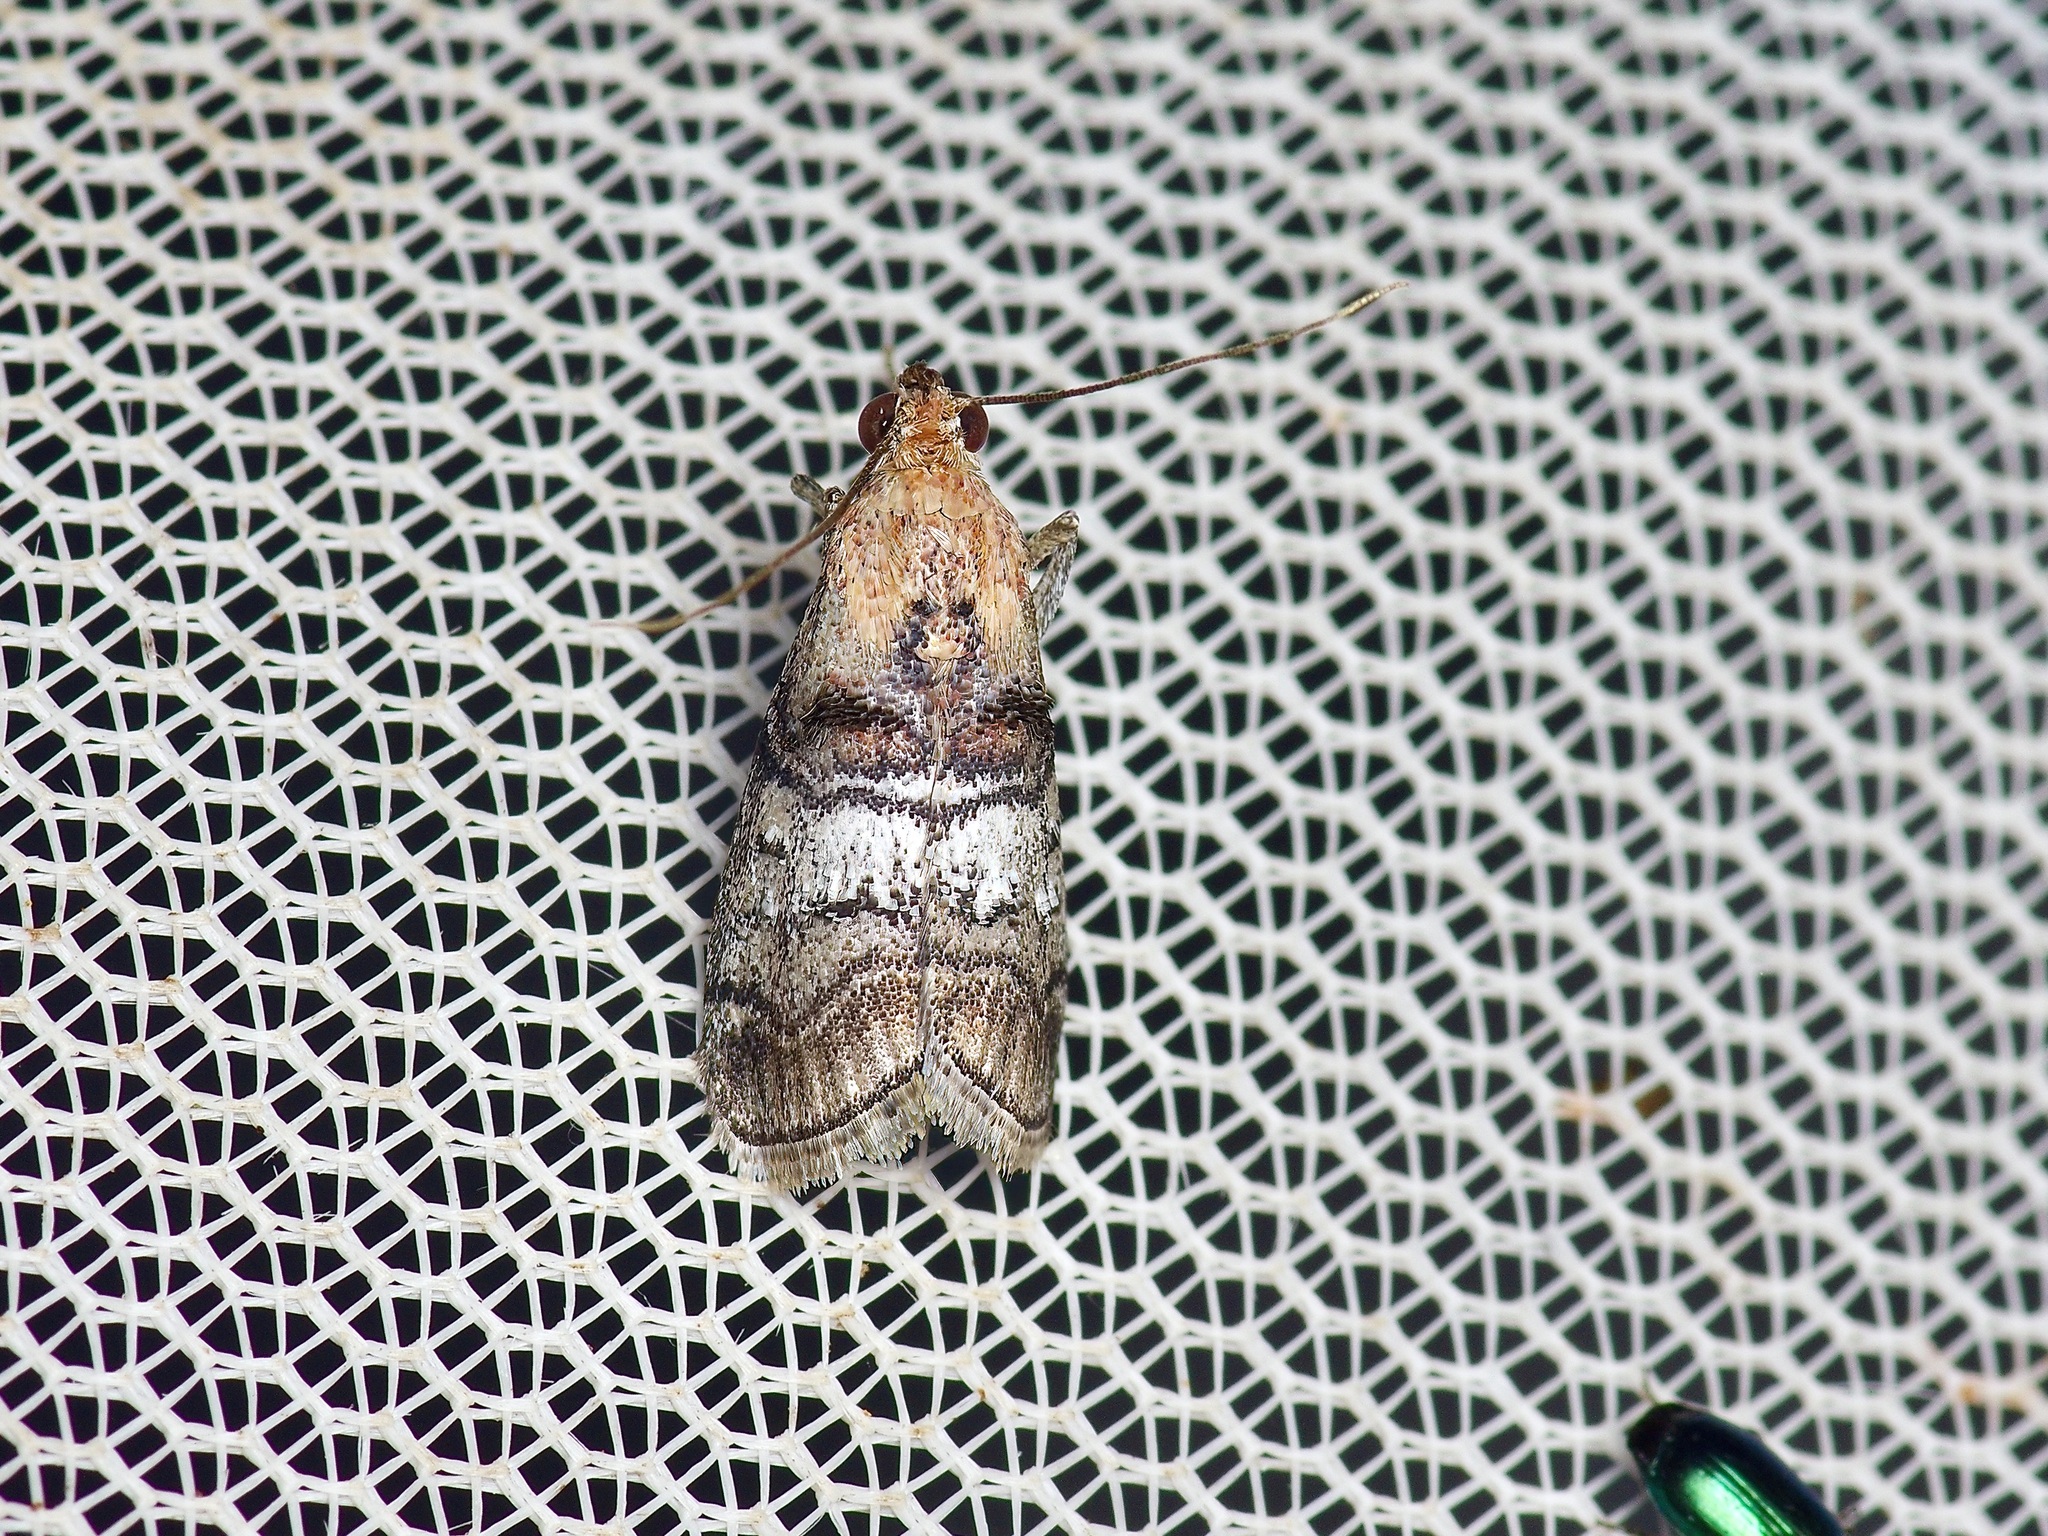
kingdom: Animalia
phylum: Arthropoda
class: Insecta
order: Lepidoptera
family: Pyralidae
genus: Pococera
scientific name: Pococera maritimalis
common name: Gray-banded pococera moth
